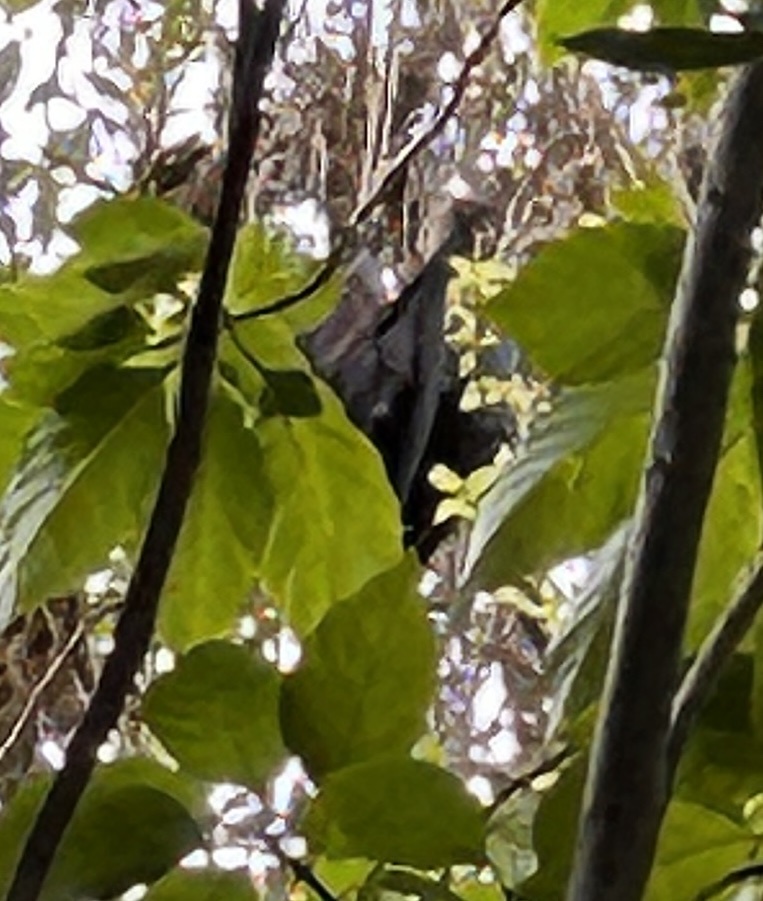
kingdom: Animalia
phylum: Chordata
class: Mammalia
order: Chiroptera
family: Pteropodidae
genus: Pteropus
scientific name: Pteropus vampyrus
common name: Large flying fox
